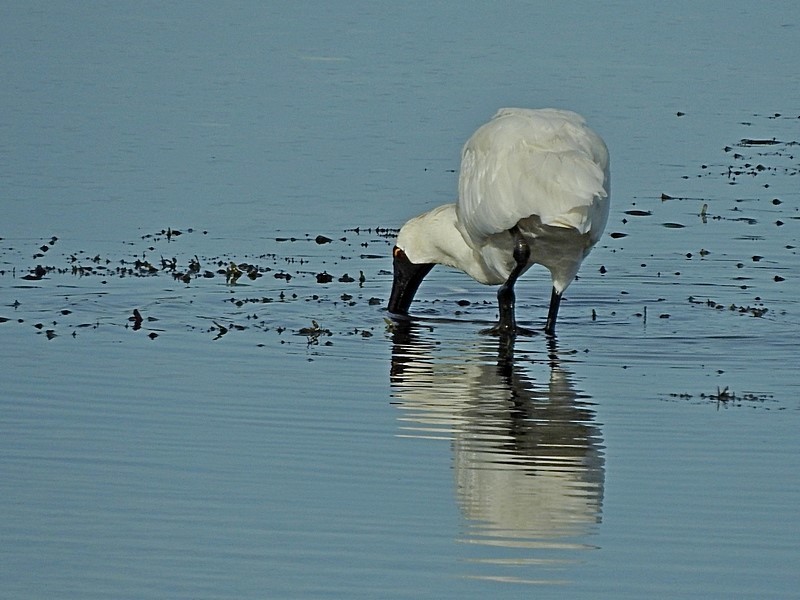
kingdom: Animalia
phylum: Chordata
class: Aves
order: Pelecaniformes
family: Threskiornithidae
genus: Platalea
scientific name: Platalea regia
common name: Royal spoonbill
